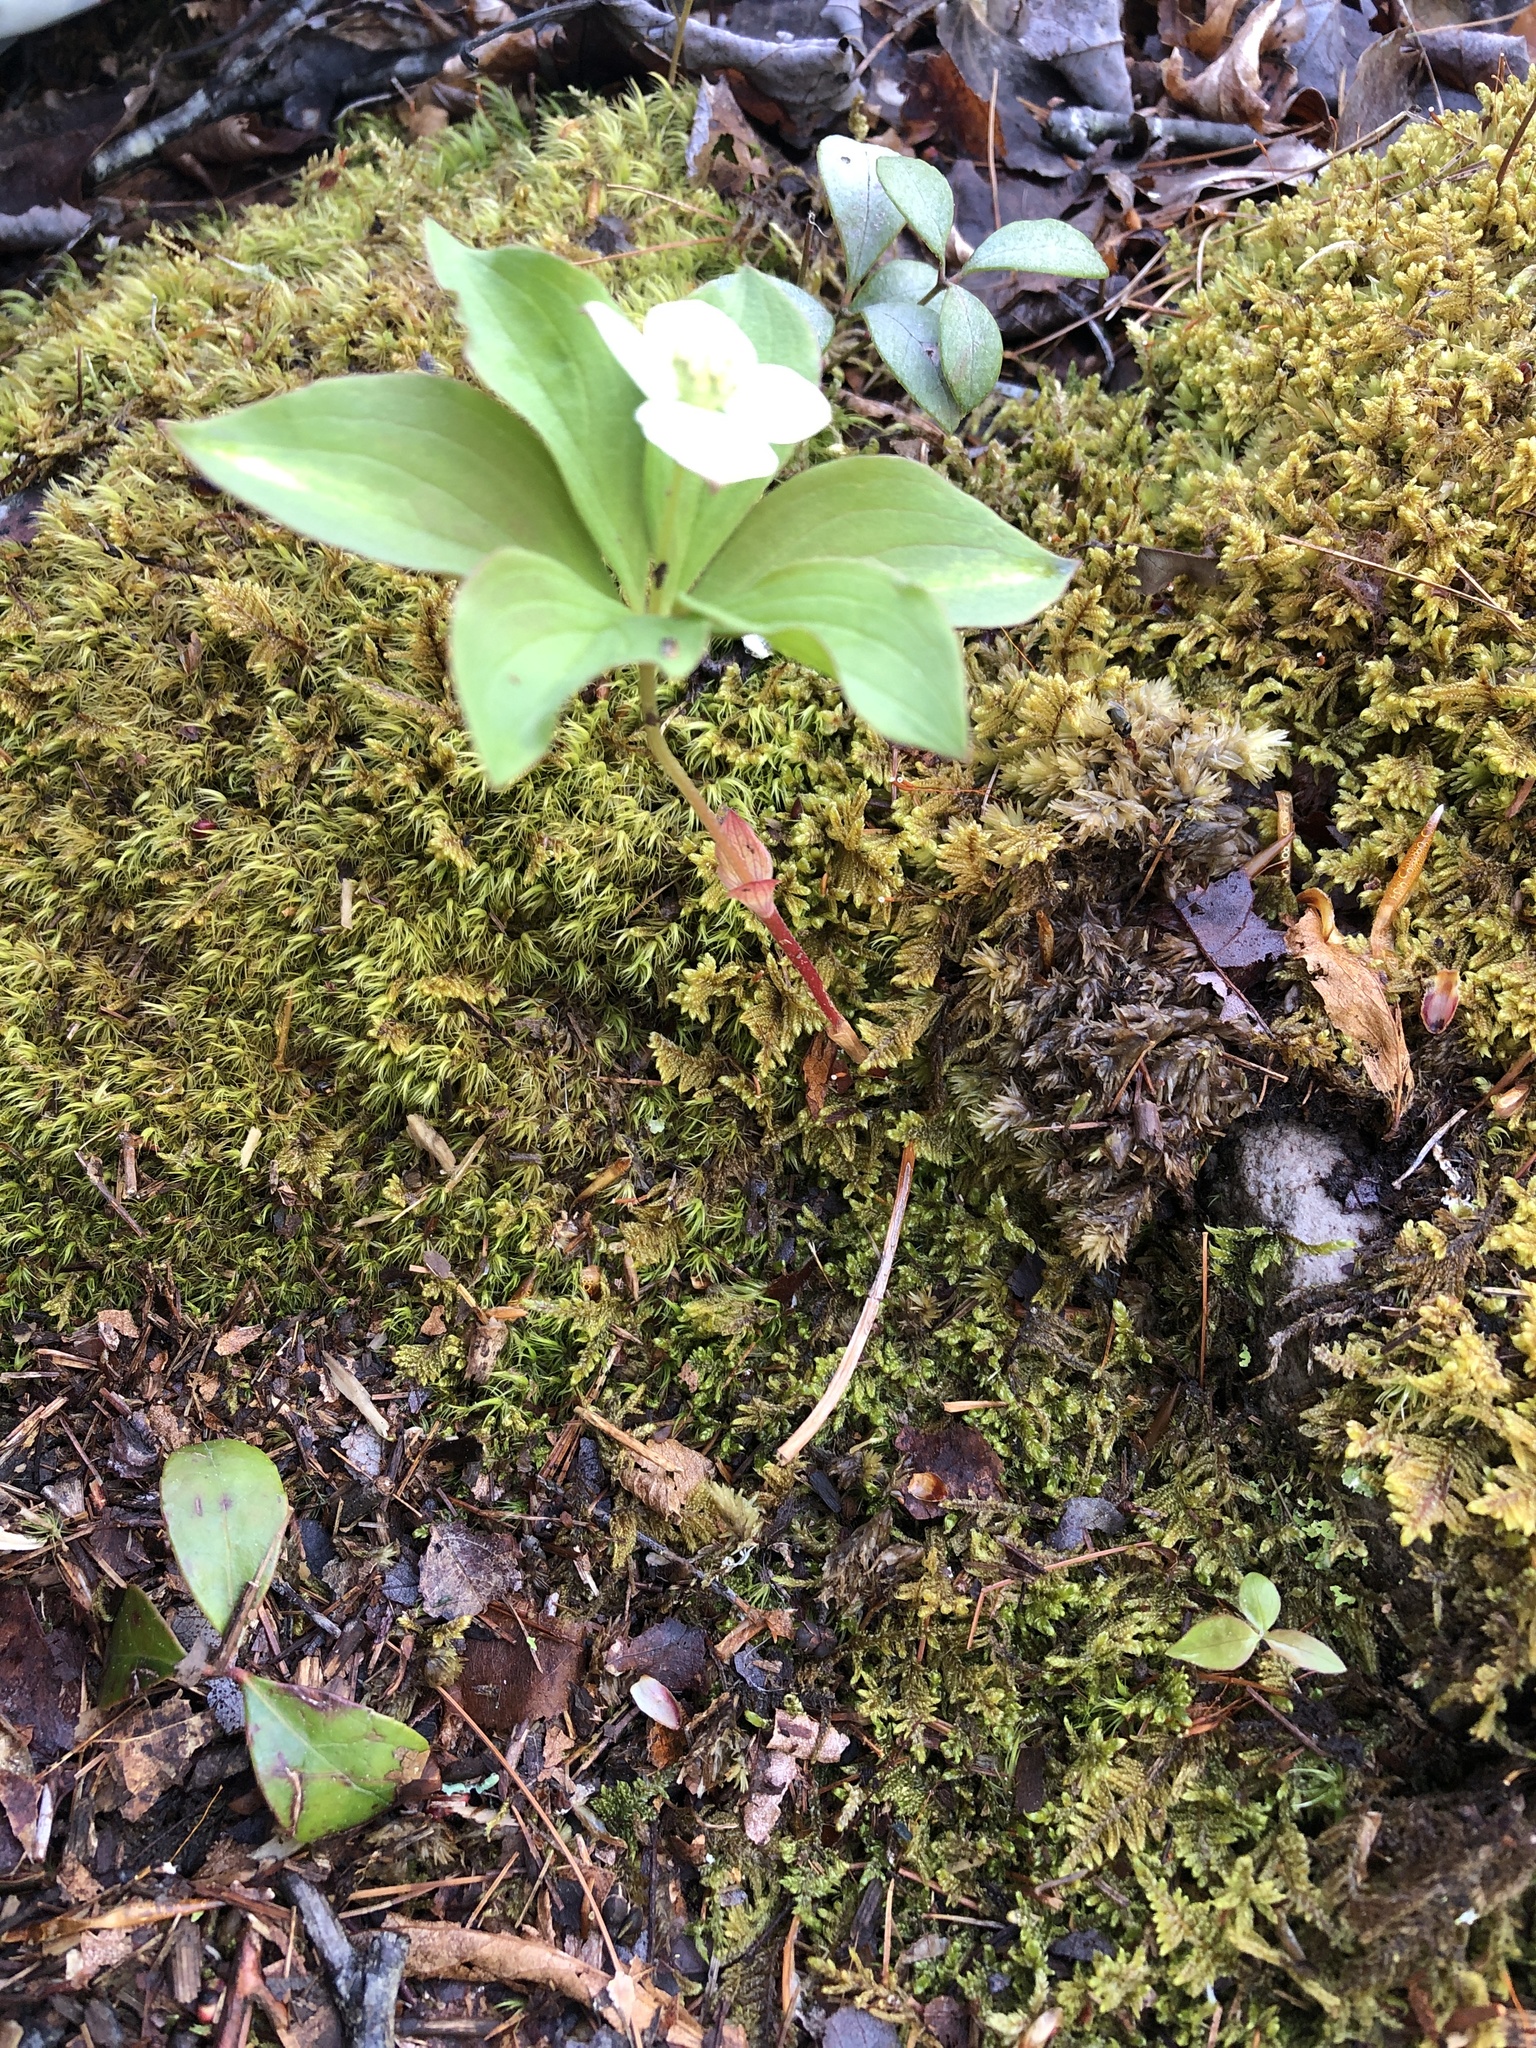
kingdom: Plantae
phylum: Tracheophyta
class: Magnoliopsida
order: Cornales
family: Cornaceae
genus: Cornus
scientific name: Cornus canadensis
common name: Creeping dogwood
